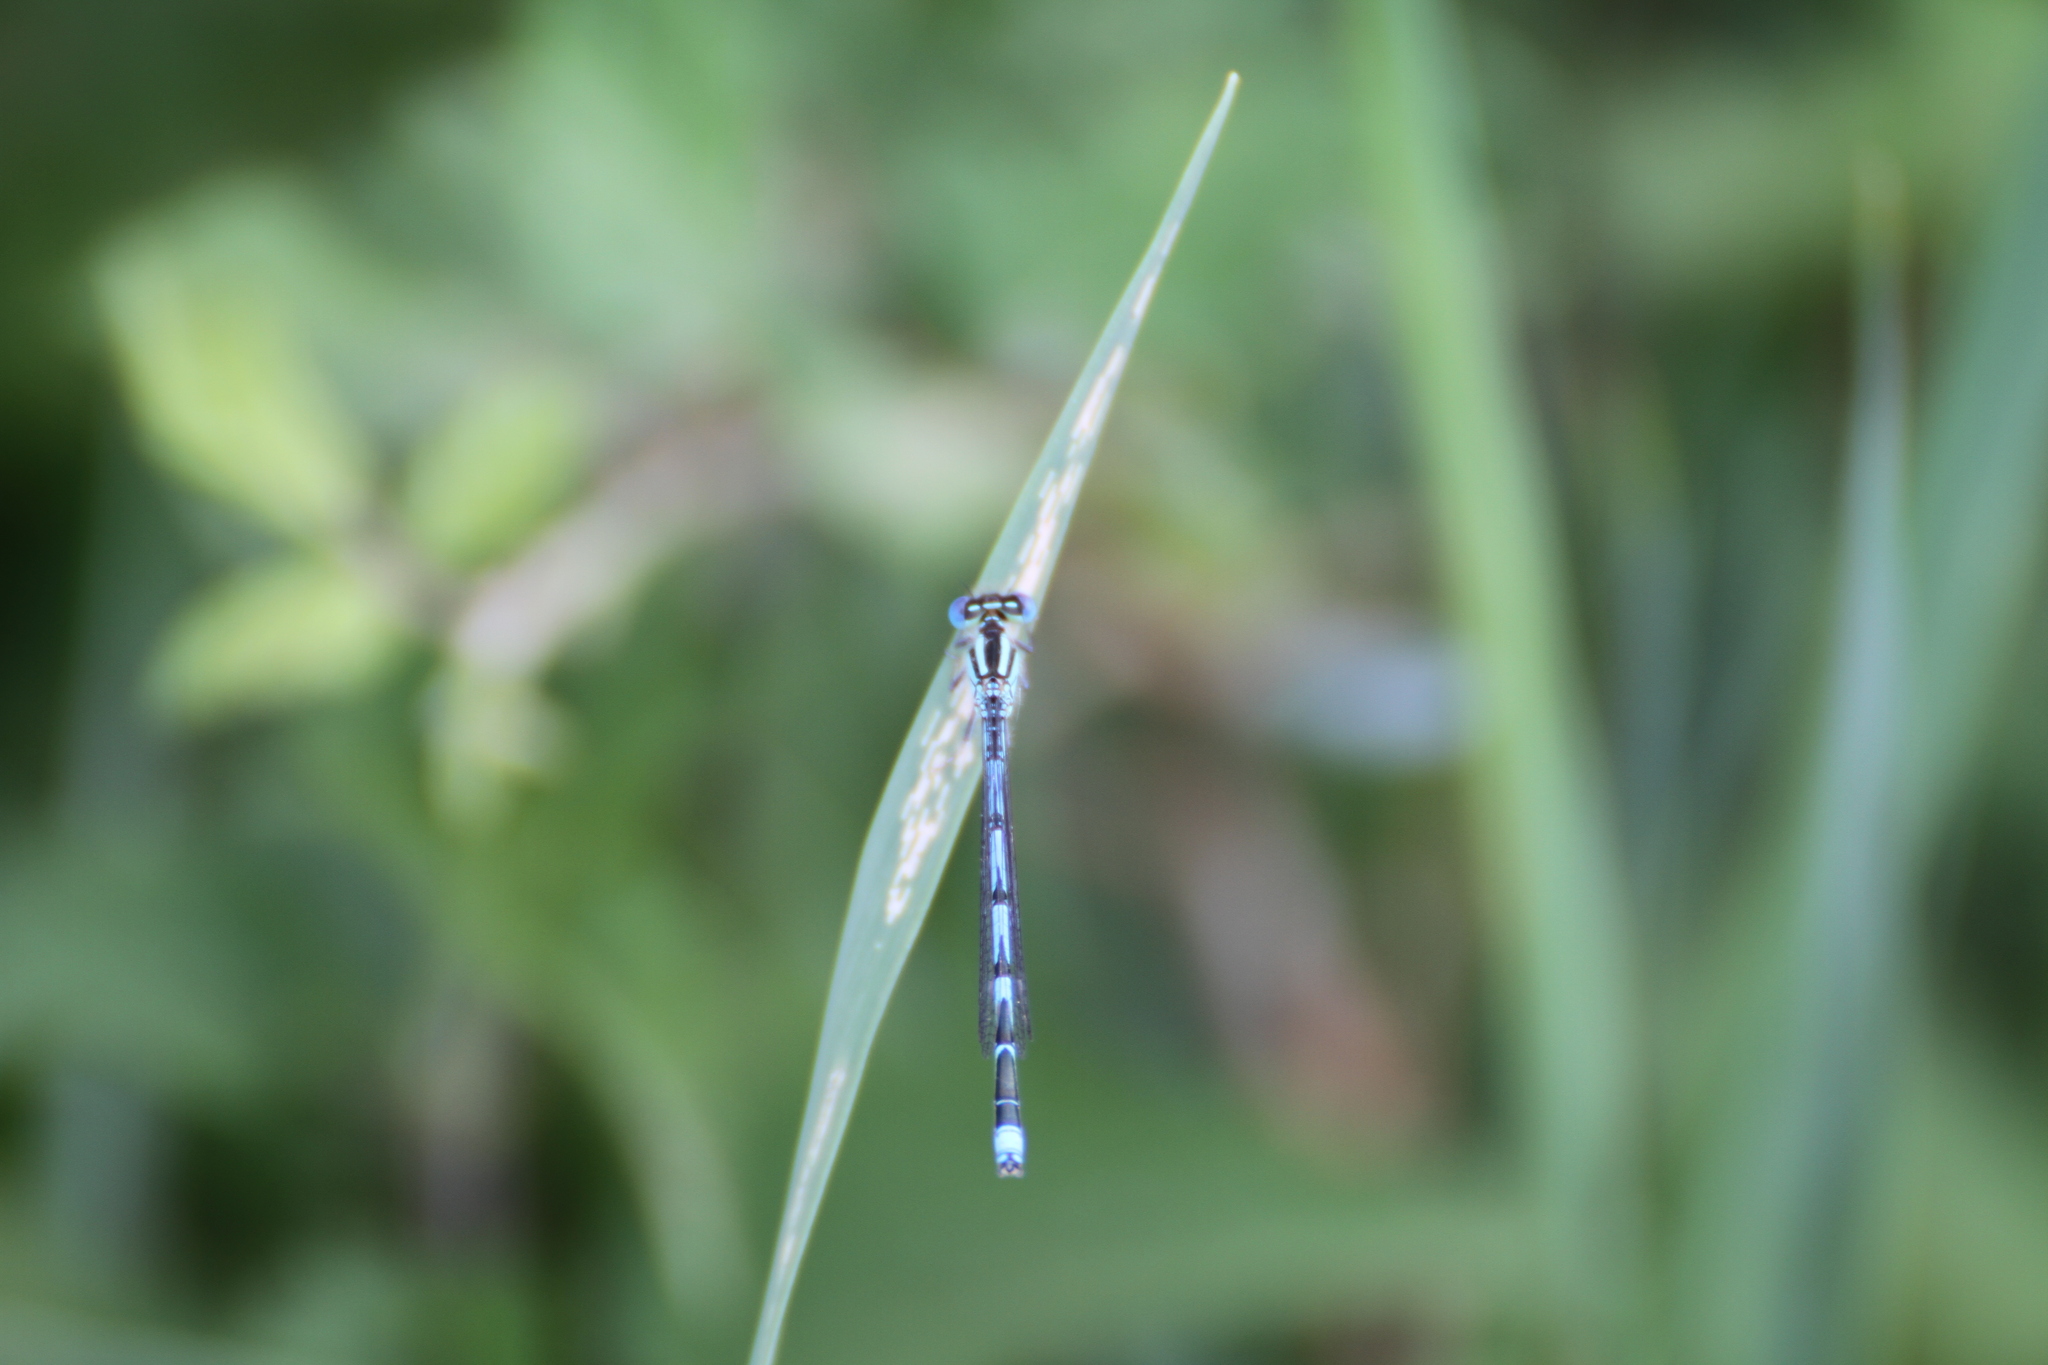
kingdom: Animalia
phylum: Arthropoda
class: Insecta
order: Odonata
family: Coenagrionidae
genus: Erythromma
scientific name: Erythromma lindenii
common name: Blue-eye
